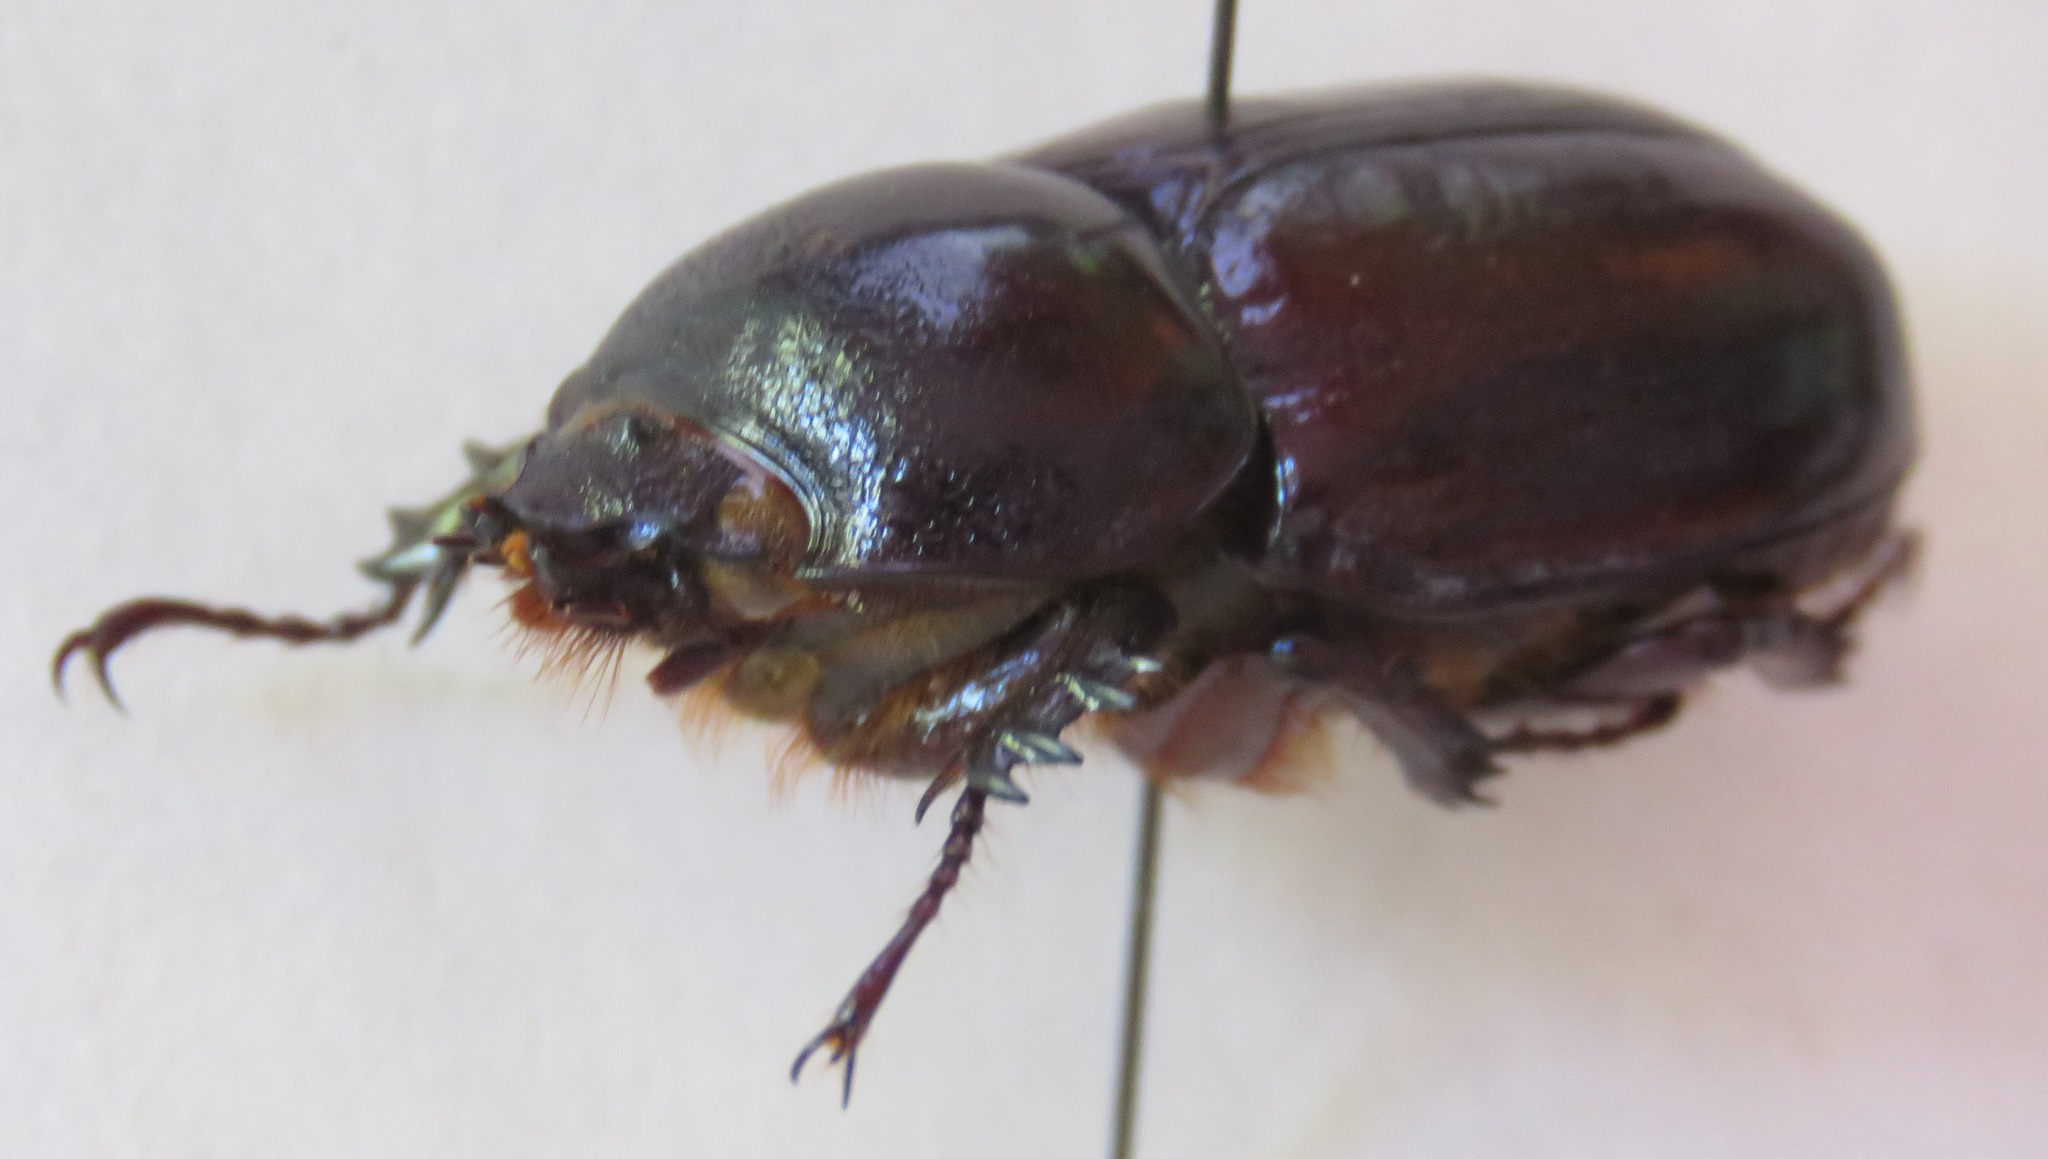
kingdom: Animalia
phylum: Arthropoda
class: Insecta
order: Coleoptera
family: Scarabaeidae
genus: Podischnus
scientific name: Podischnus agenor
